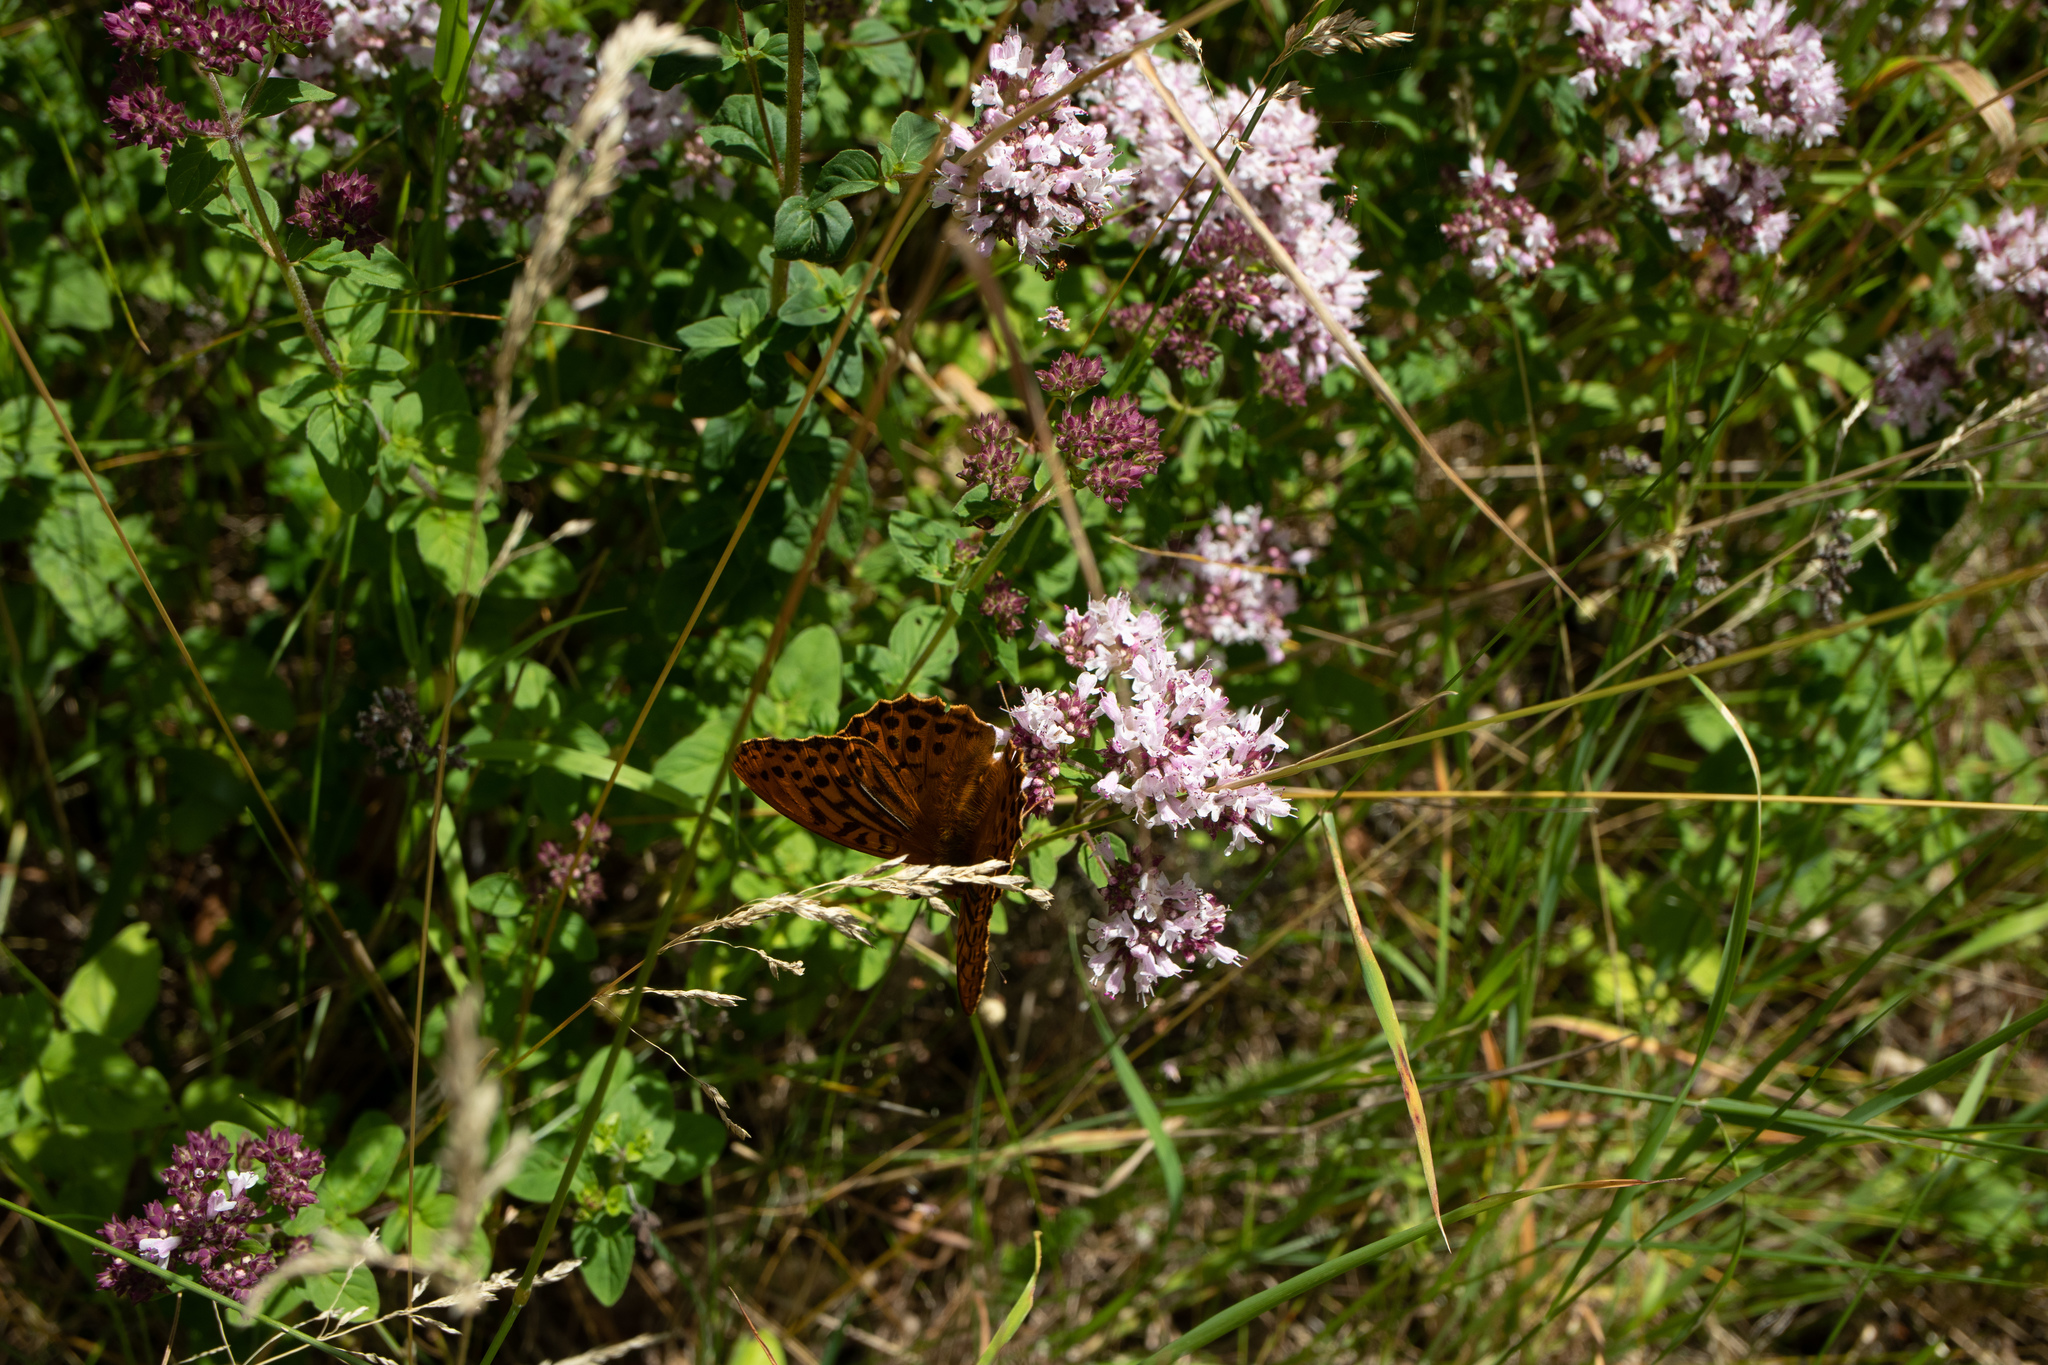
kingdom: Animalia
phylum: Arthropoda
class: Insecta
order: Lepidoptera
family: Nymphalidae
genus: Argynnis
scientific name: Argynnis paphia
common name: Silver-washed fritillary
